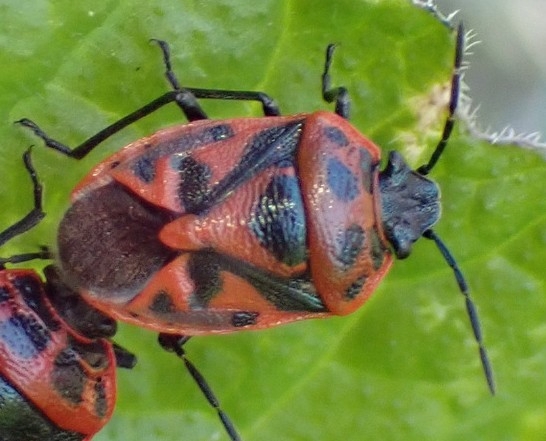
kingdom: Animalia
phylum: Arthropoda
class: Insecta
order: Hemiptera
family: Pentatomidae
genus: Eurydema
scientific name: Eurydema ornata
